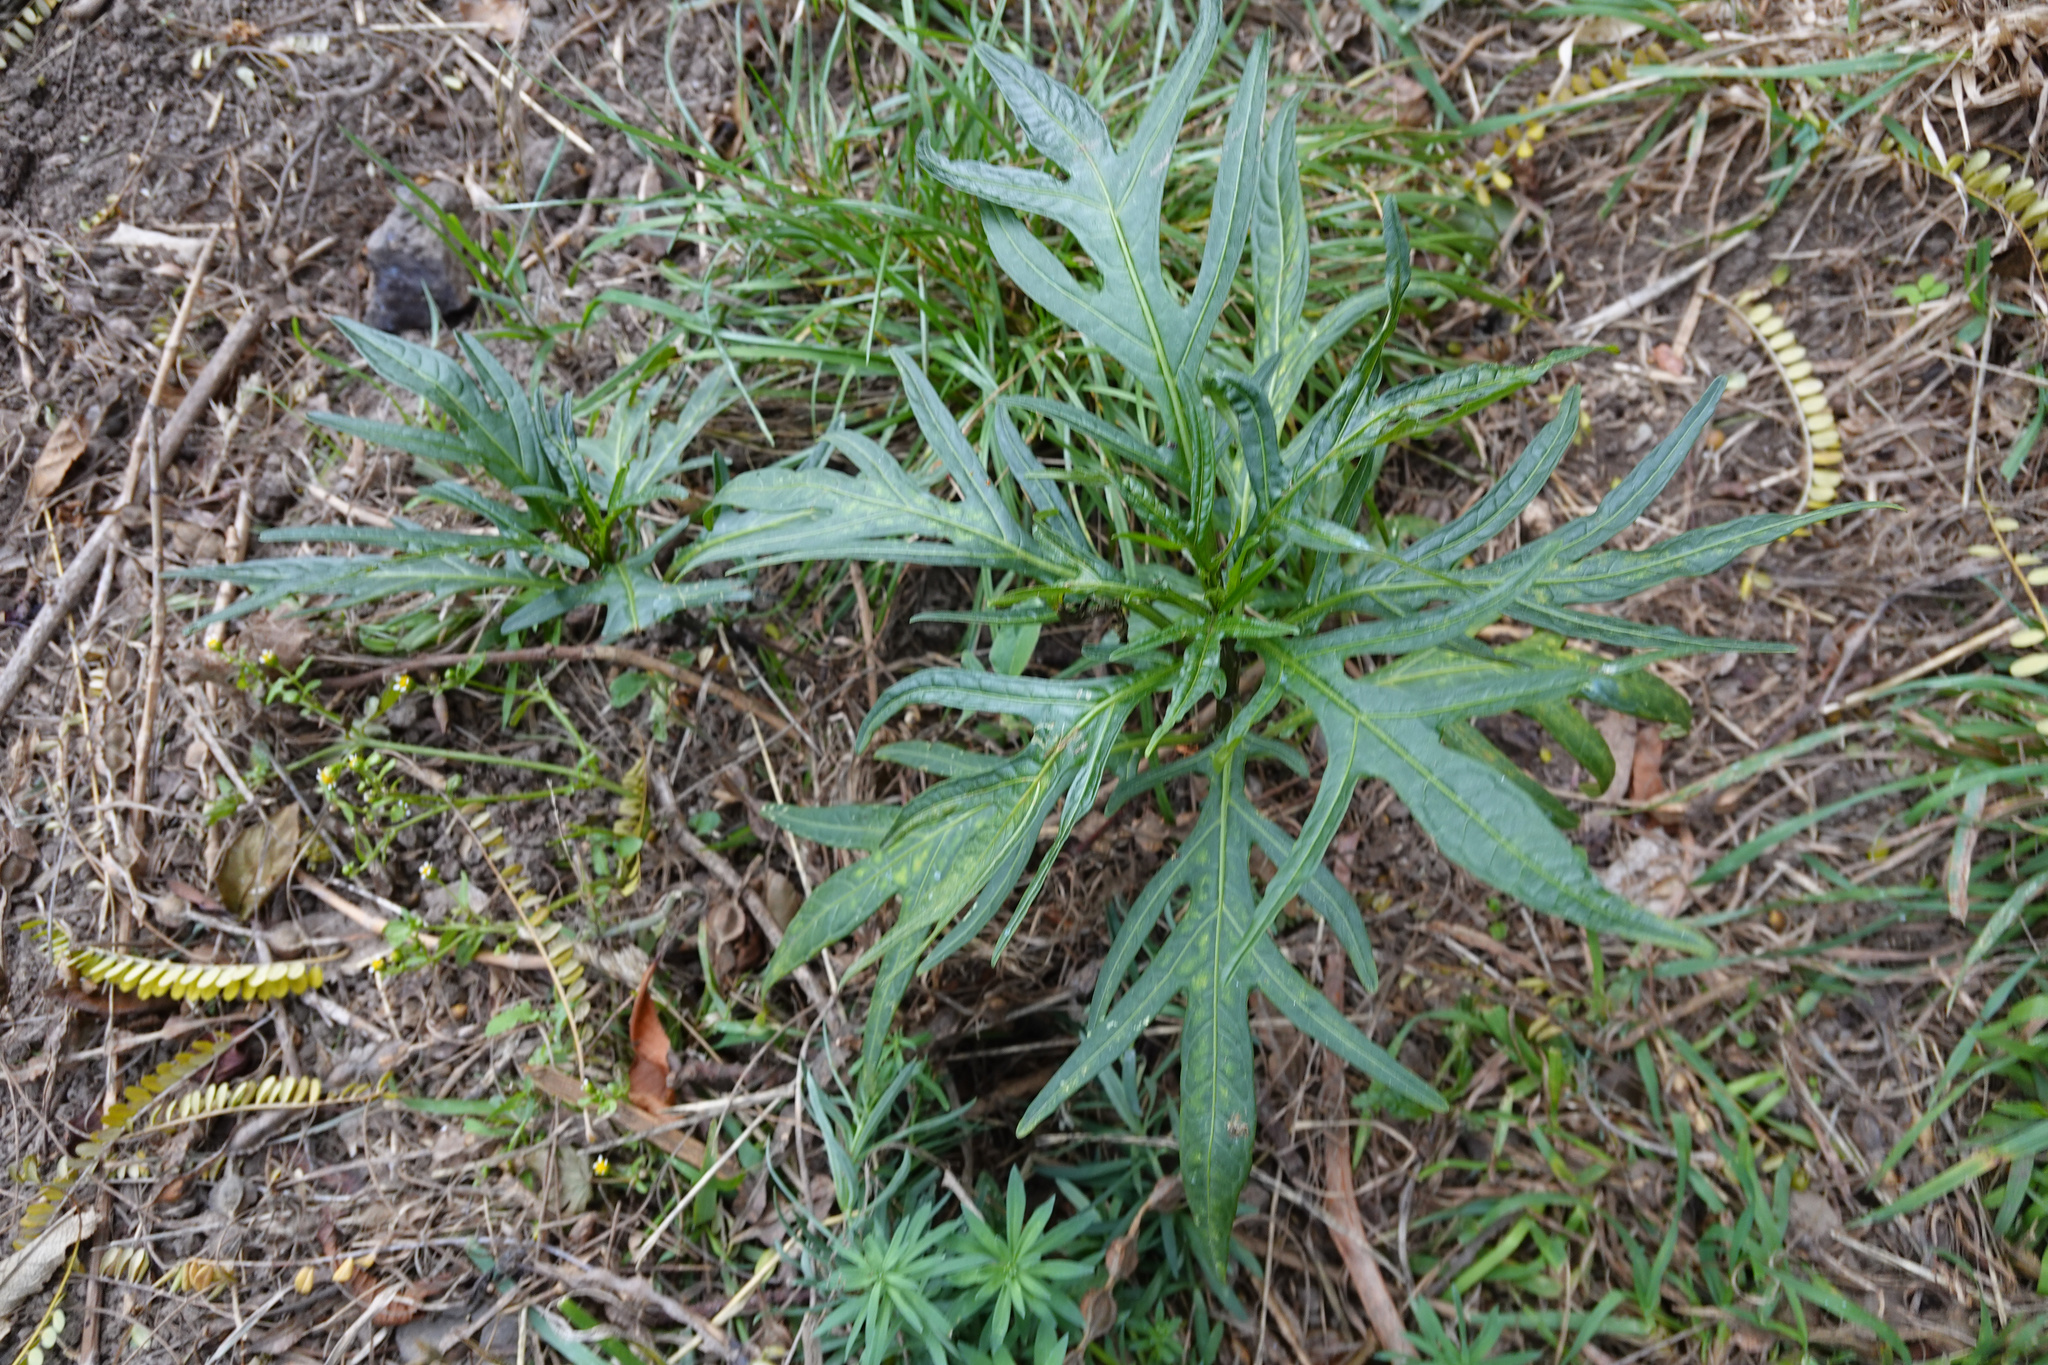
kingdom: Plantae
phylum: Tracheophyta
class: Magnoliopsida
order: Solanales
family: Solanaceae
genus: Solanum
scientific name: Solanum laciniatum
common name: Kangaroo-apple
